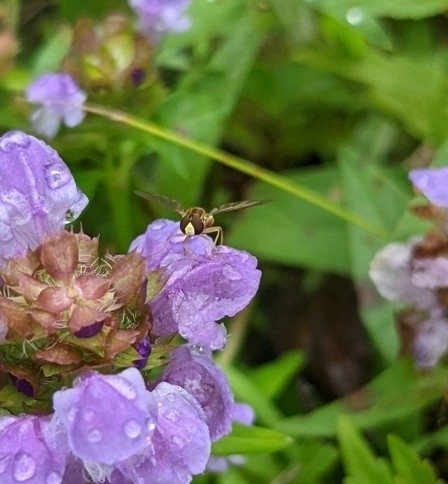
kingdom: Animalia
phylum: Arthropoda
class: Insecta
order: Diptera
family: Syrphidae
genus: Toxomerus
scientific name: Toxomerus
